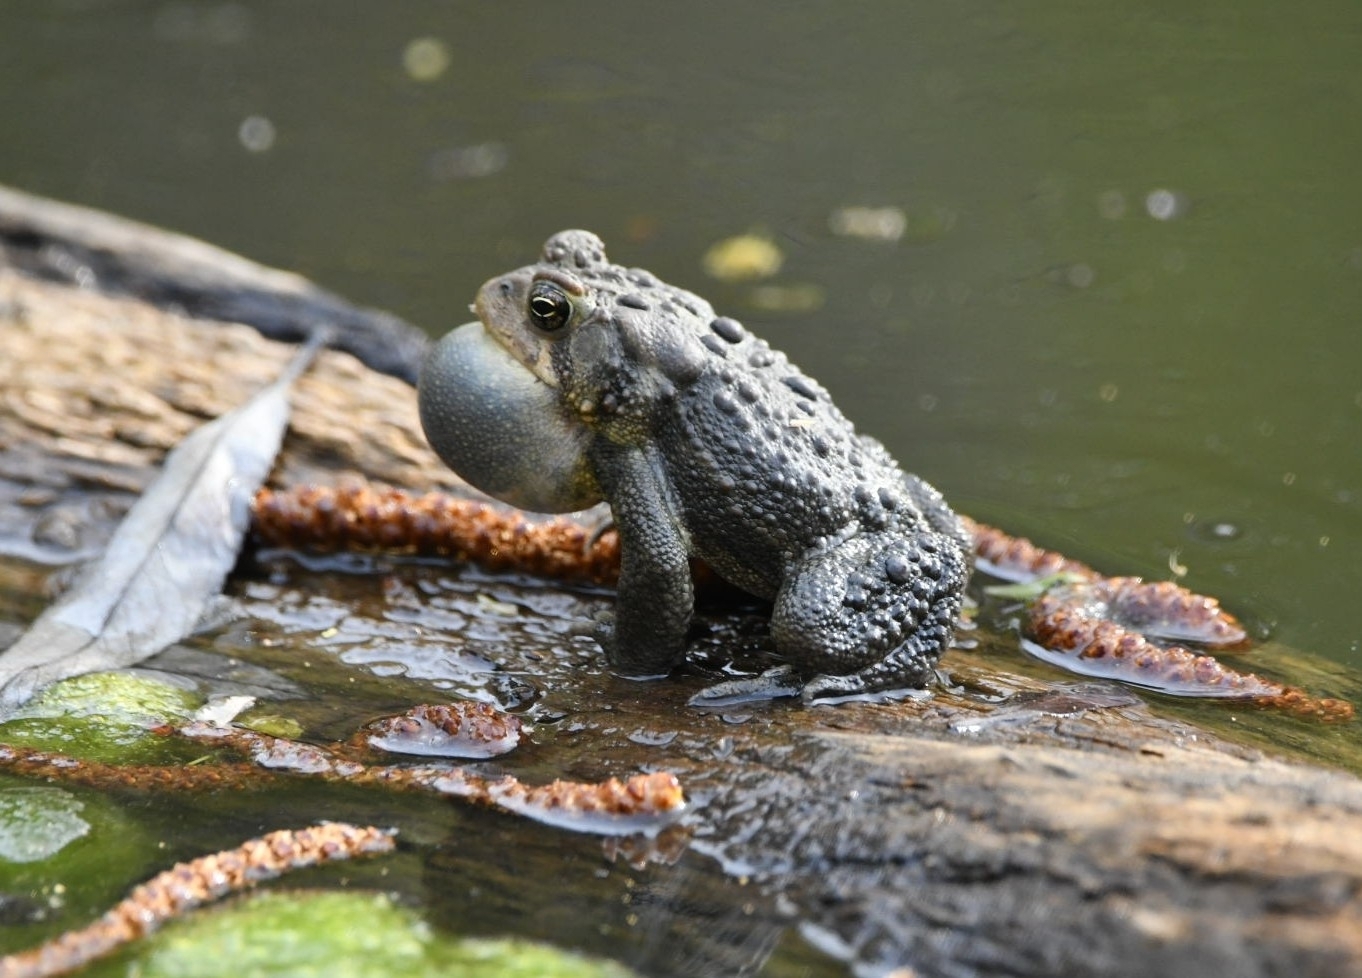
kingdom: Animalia
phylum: Chordata
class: Amphibia
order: Anura
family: Bufonidae
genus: Anaxyrus
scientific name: Anaxyrus americanus
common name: American toad
